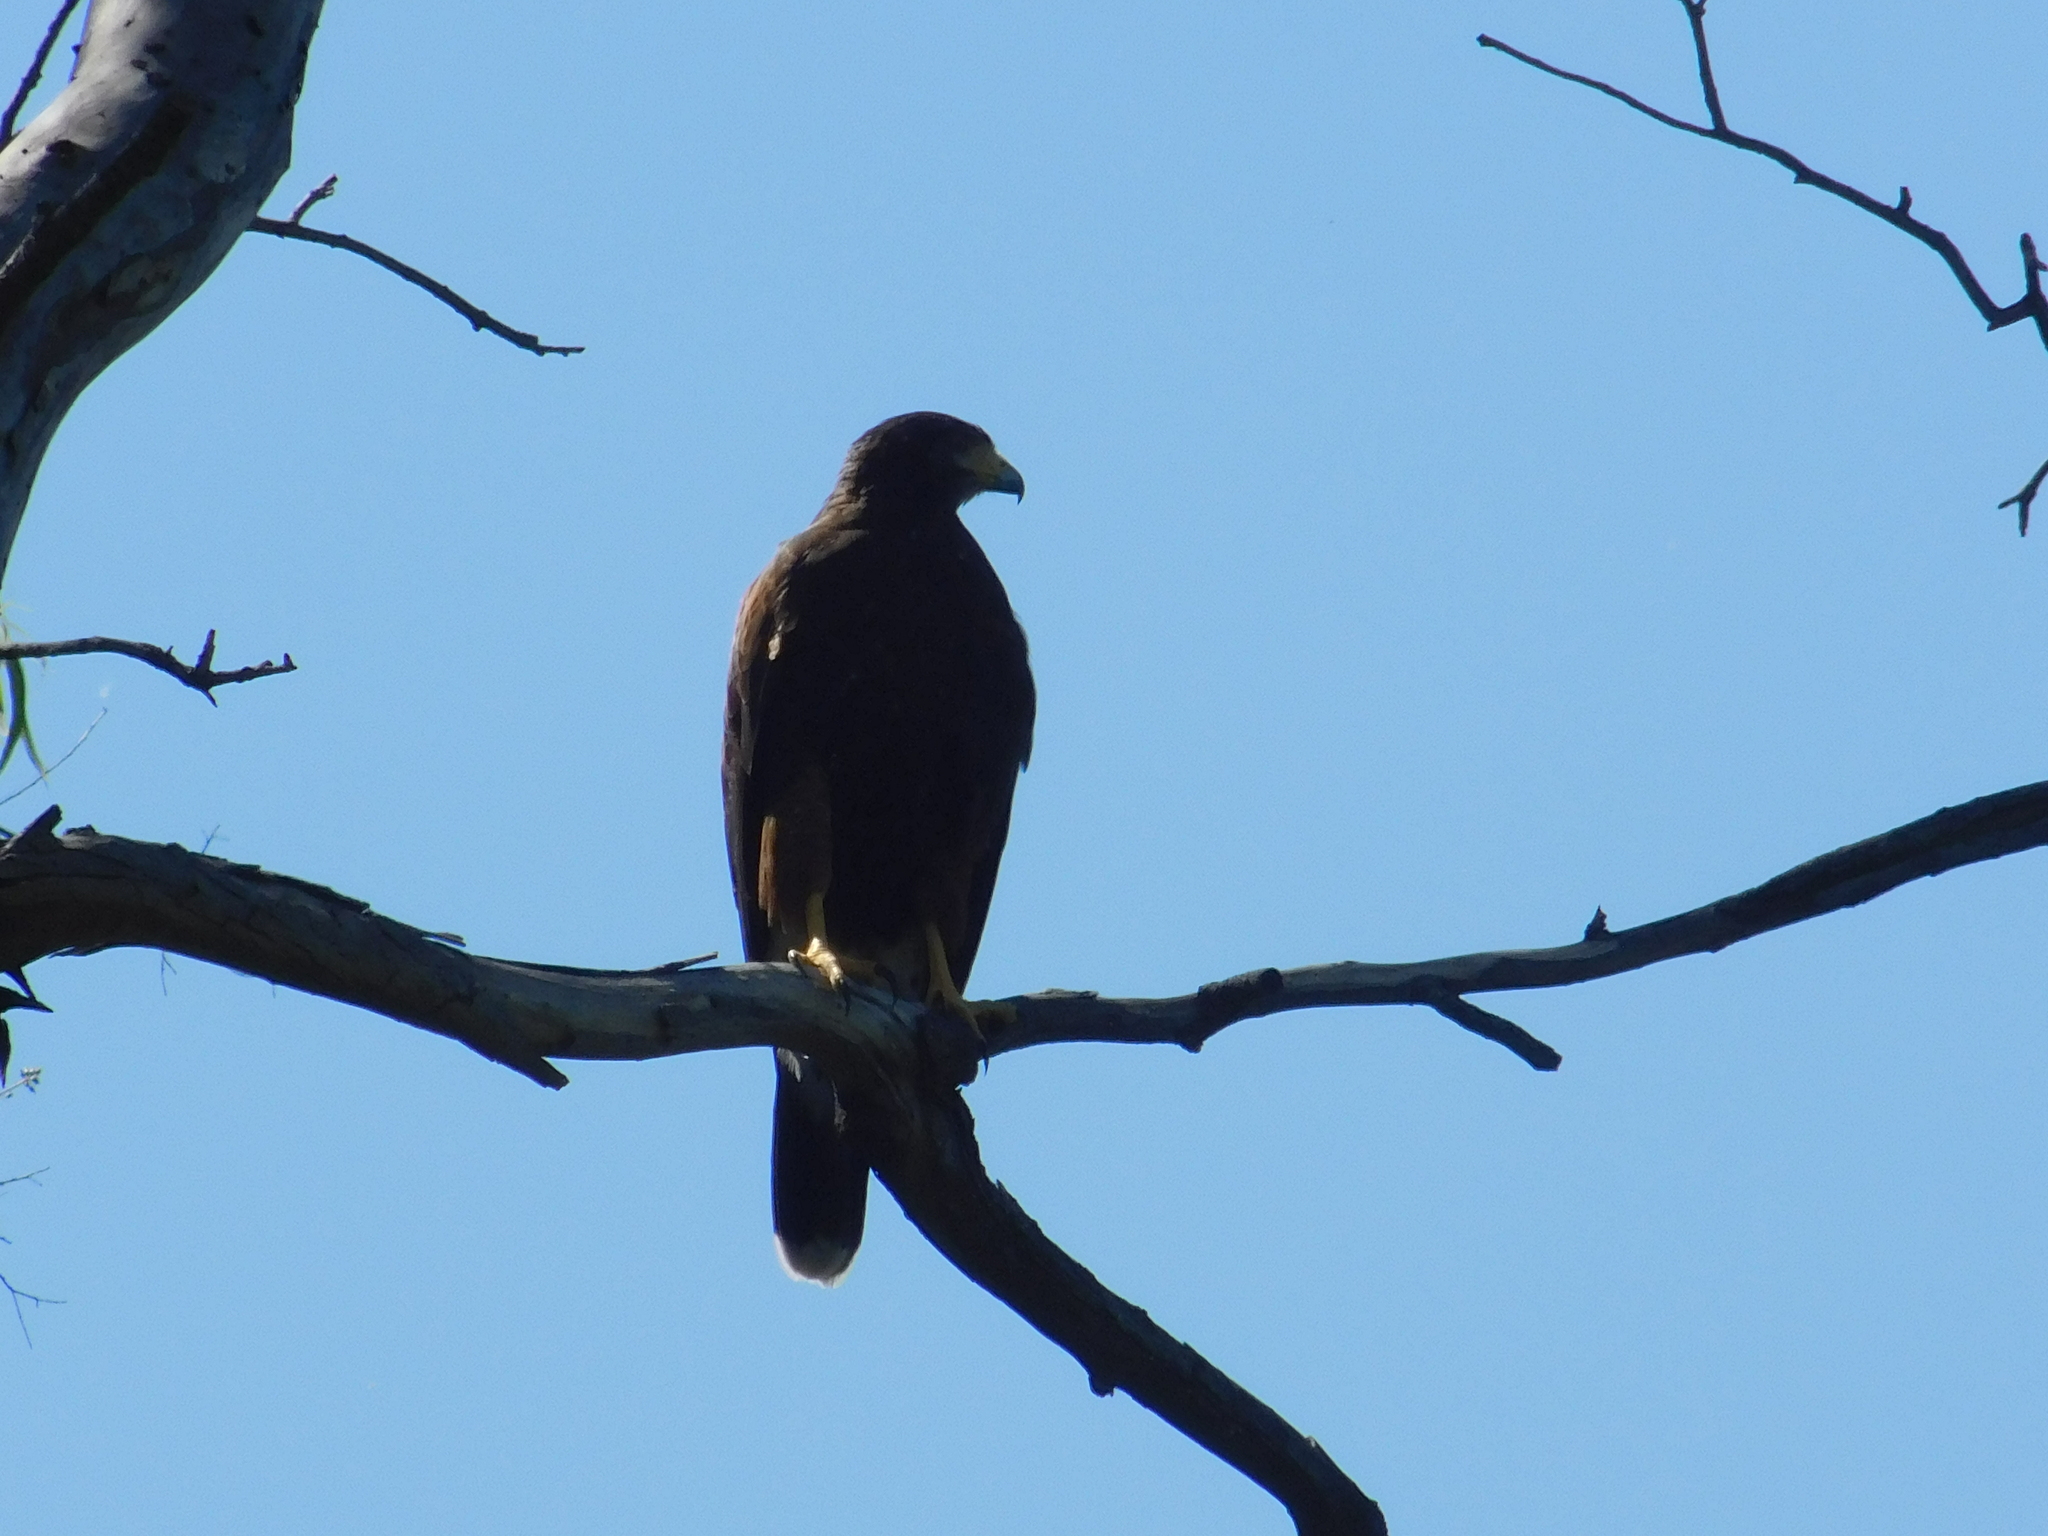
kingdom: Animalia
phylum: Chordata
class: Aves
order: Accipitriformes
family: Accipitridae
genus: Parabuteo
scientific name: Parabuteo unicinctus
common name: Harris's hawk
